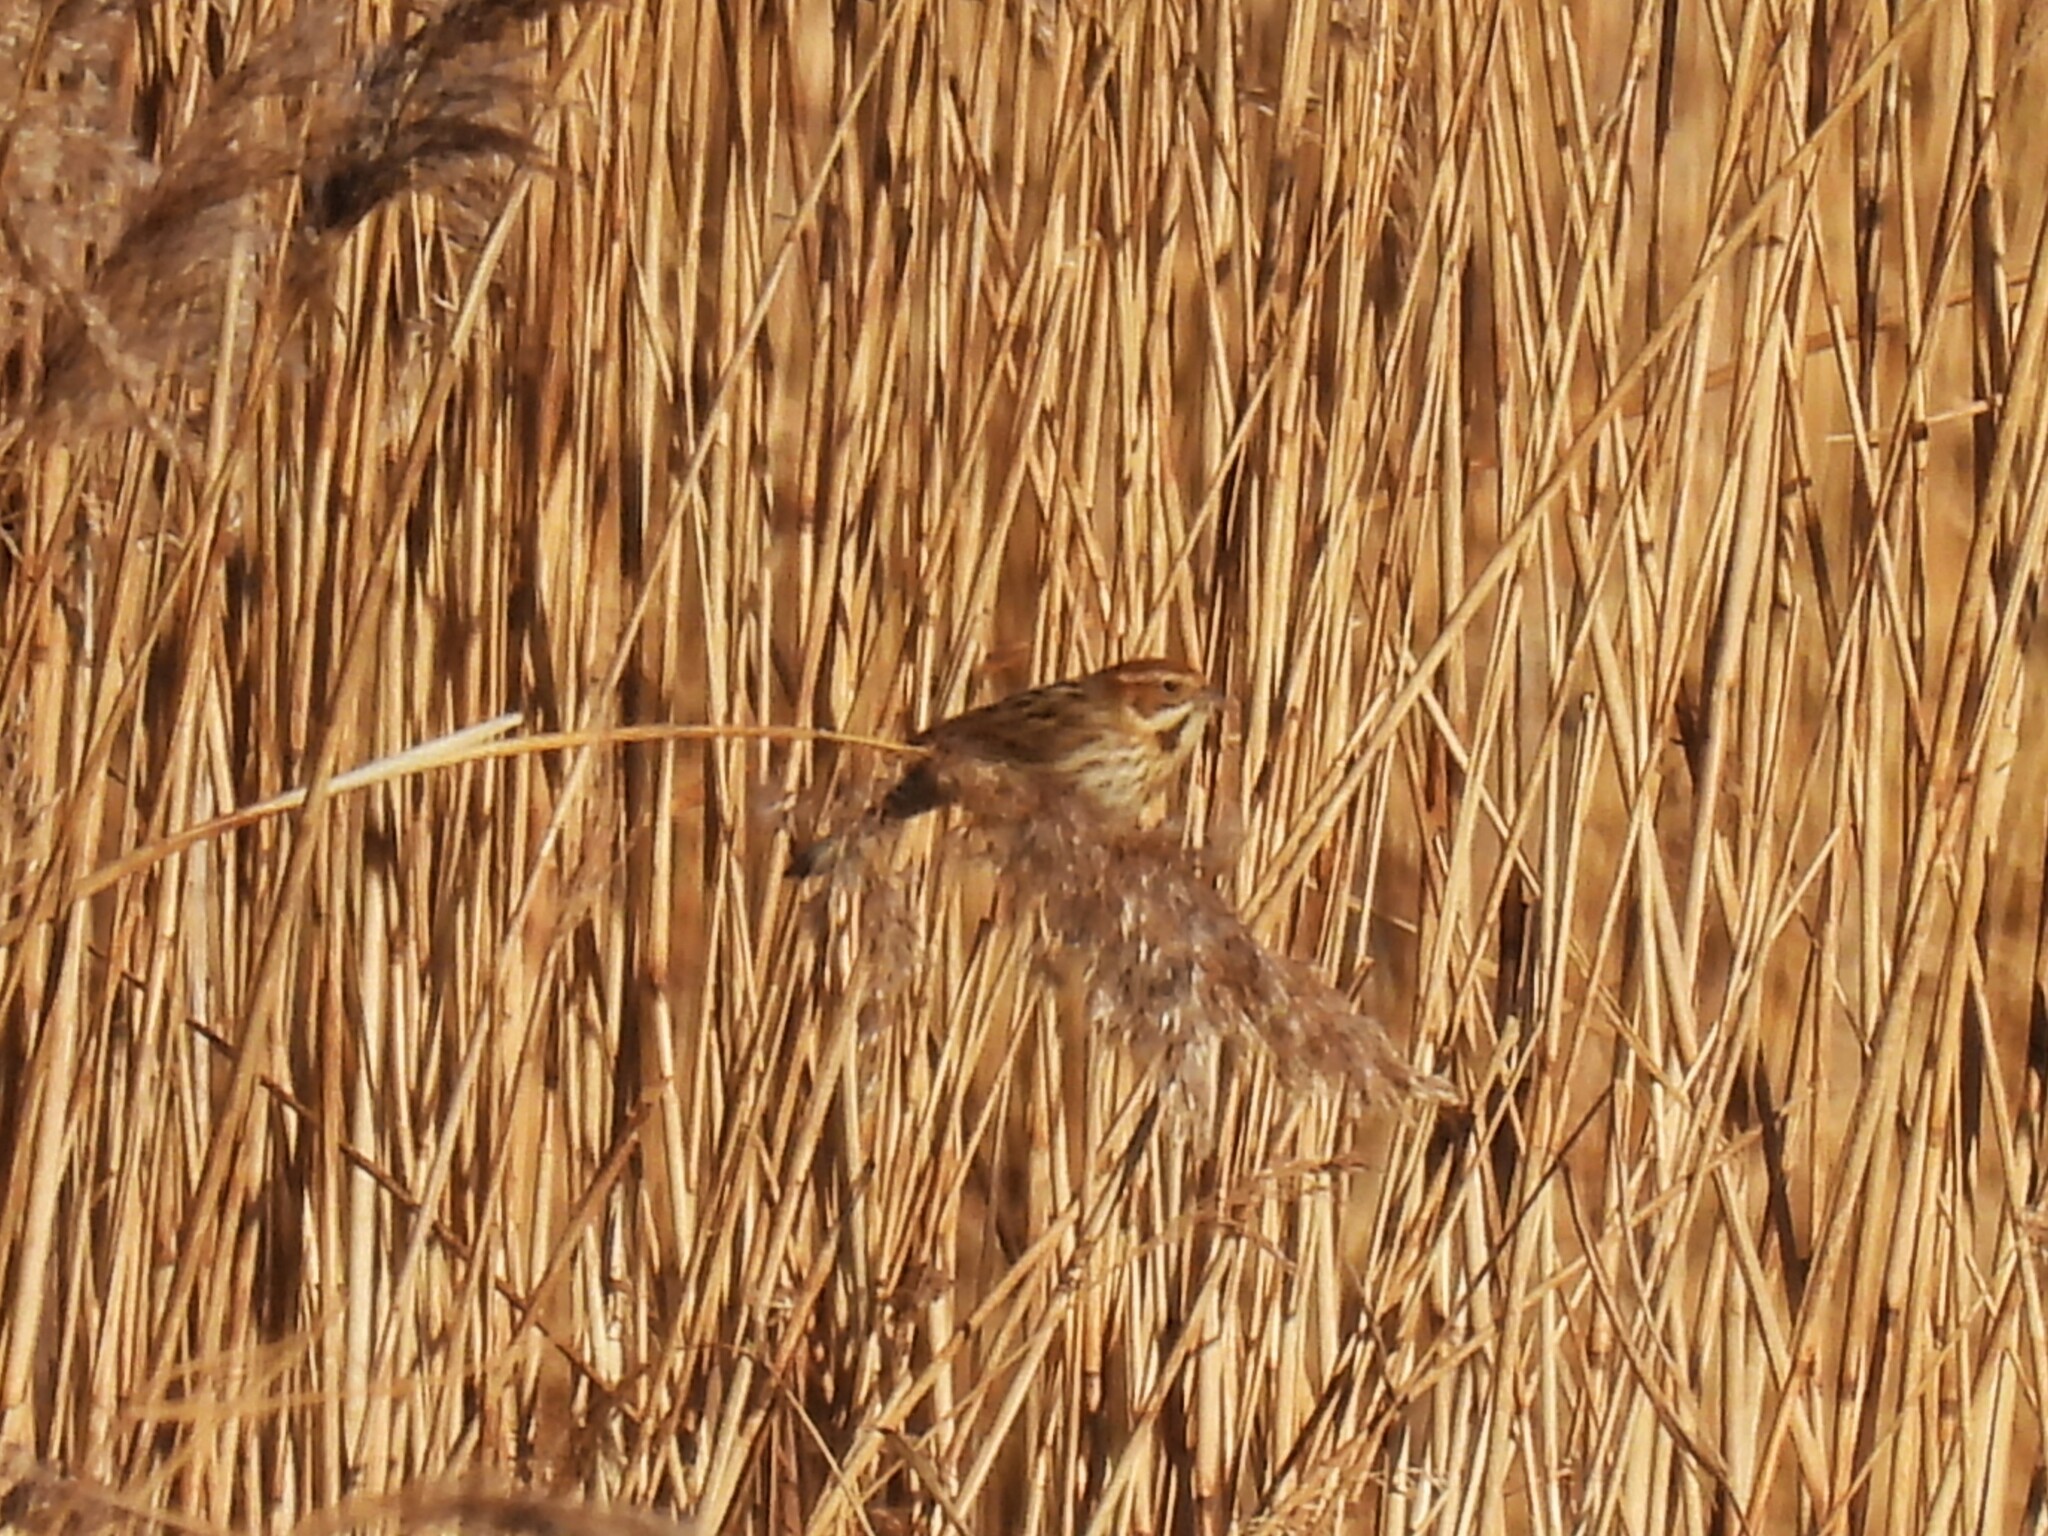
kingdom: Animalia
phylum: Chordata
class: Aves
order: Passeriformes
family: Emberizidae
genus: Emberiza
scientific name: Emberiza schoeniclus
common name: Reed bunting
